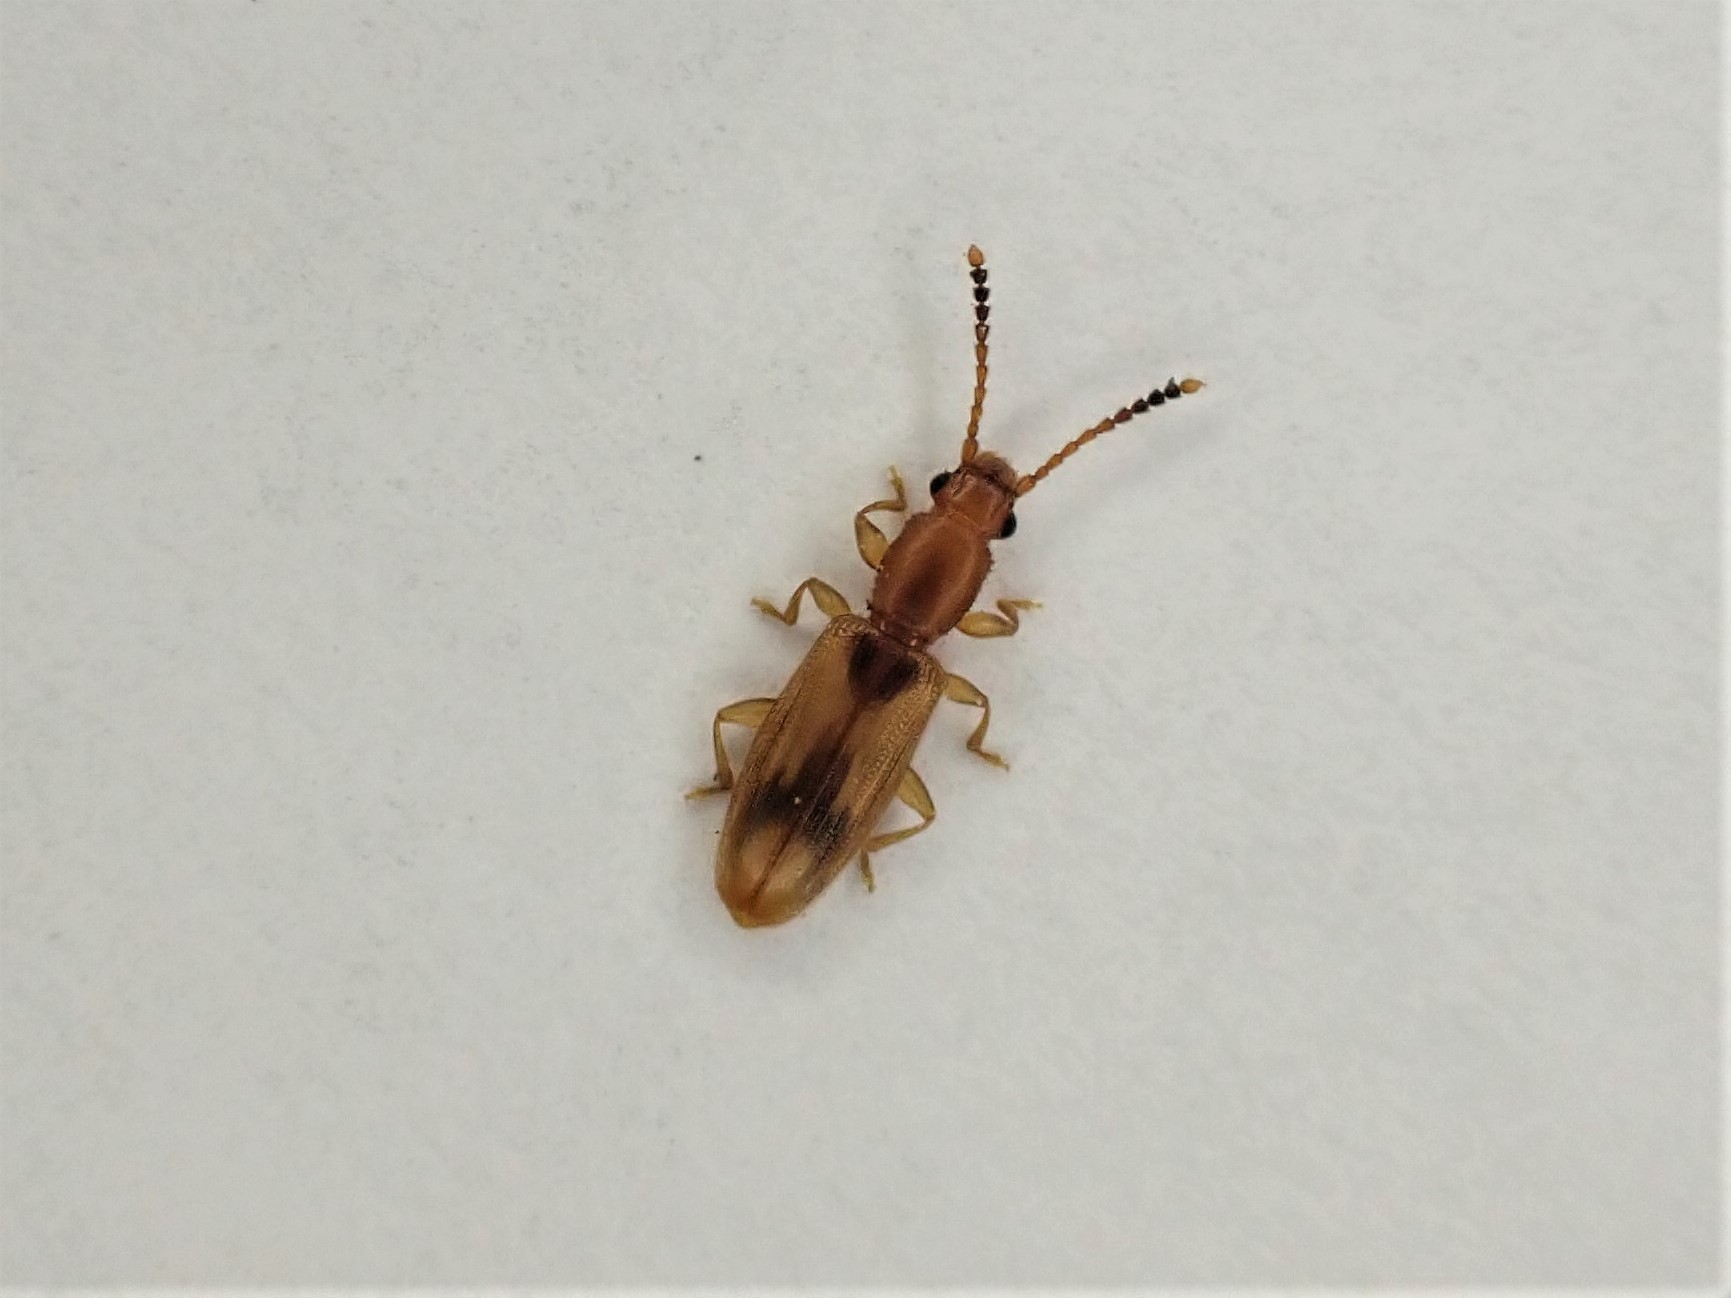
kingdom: Animalia
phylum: Arthropoda
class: Insecta
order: Coleoptera
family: Silvanidae
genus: Cryptamorpha
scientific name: Cryptamorpha desjardinsi
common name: Cryptamorpha
